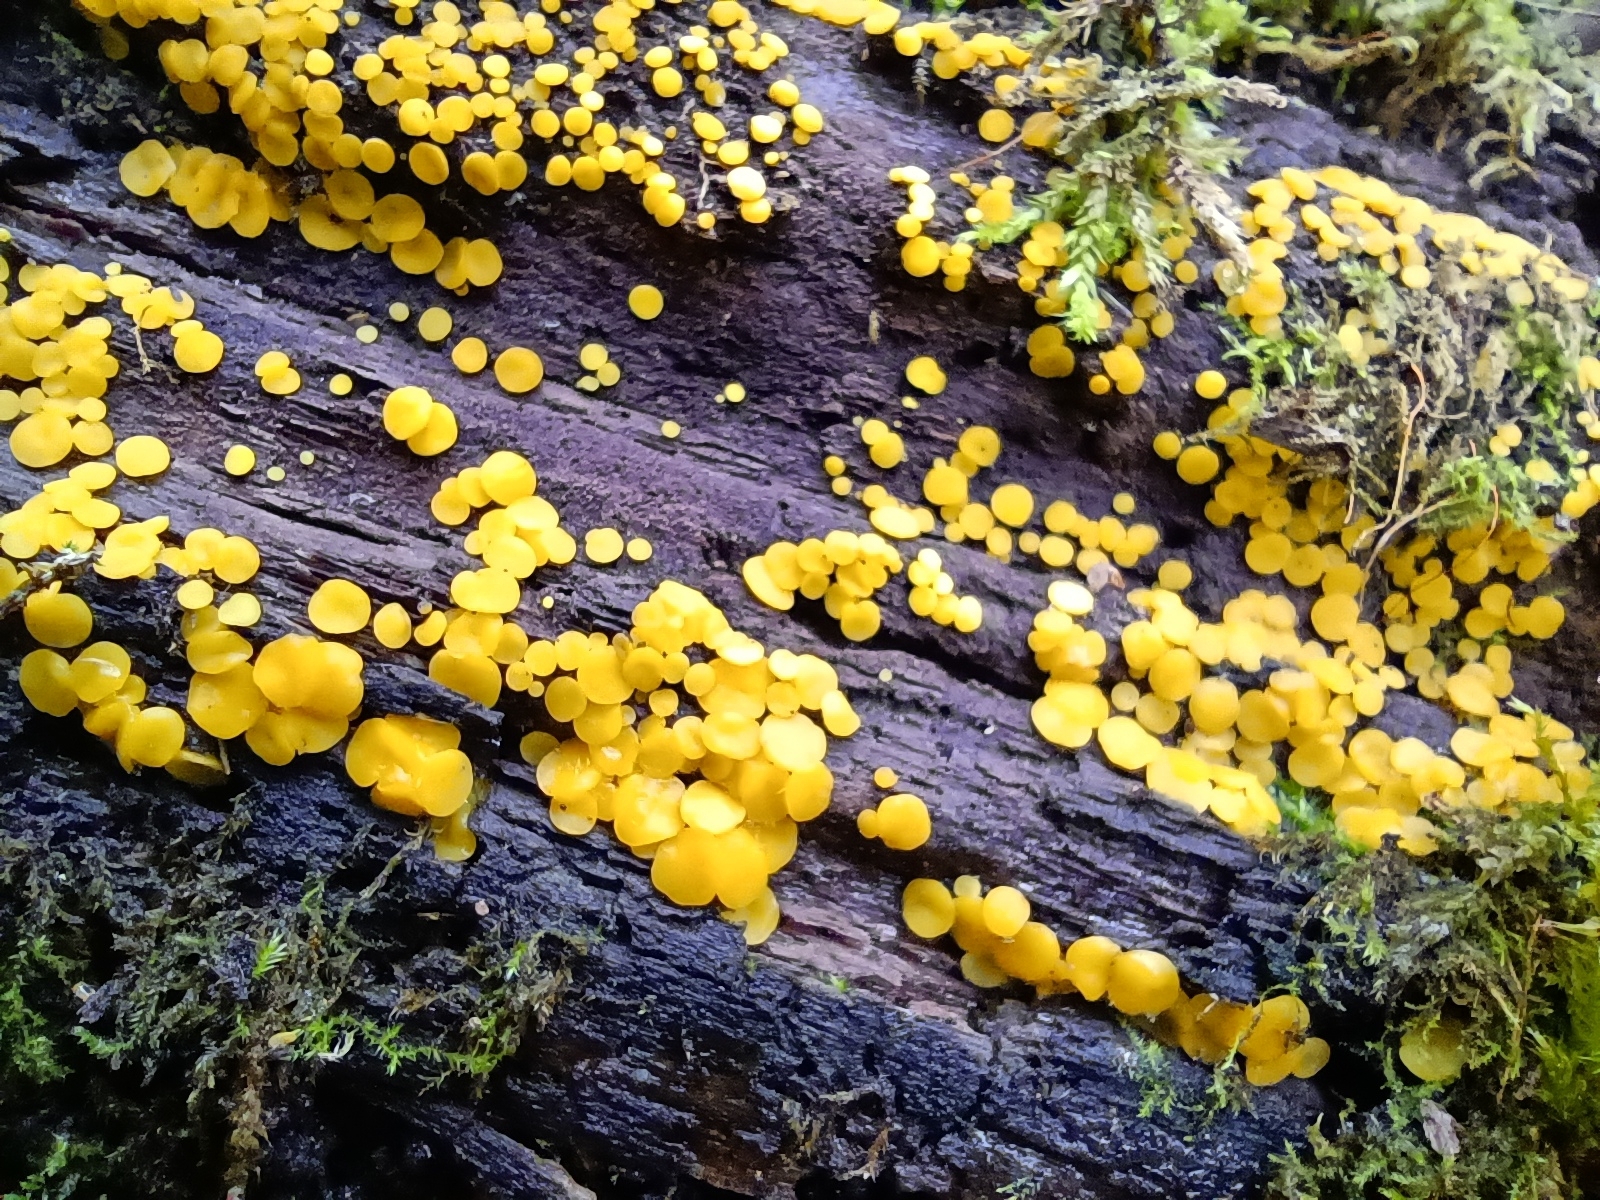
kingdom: Fungi
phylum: Ascomycota
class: Leotiomycetes
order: Helotiales
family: Pezizellaceae
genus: Calycina
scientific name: Calycina citrina
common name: Yellow fairy cups
